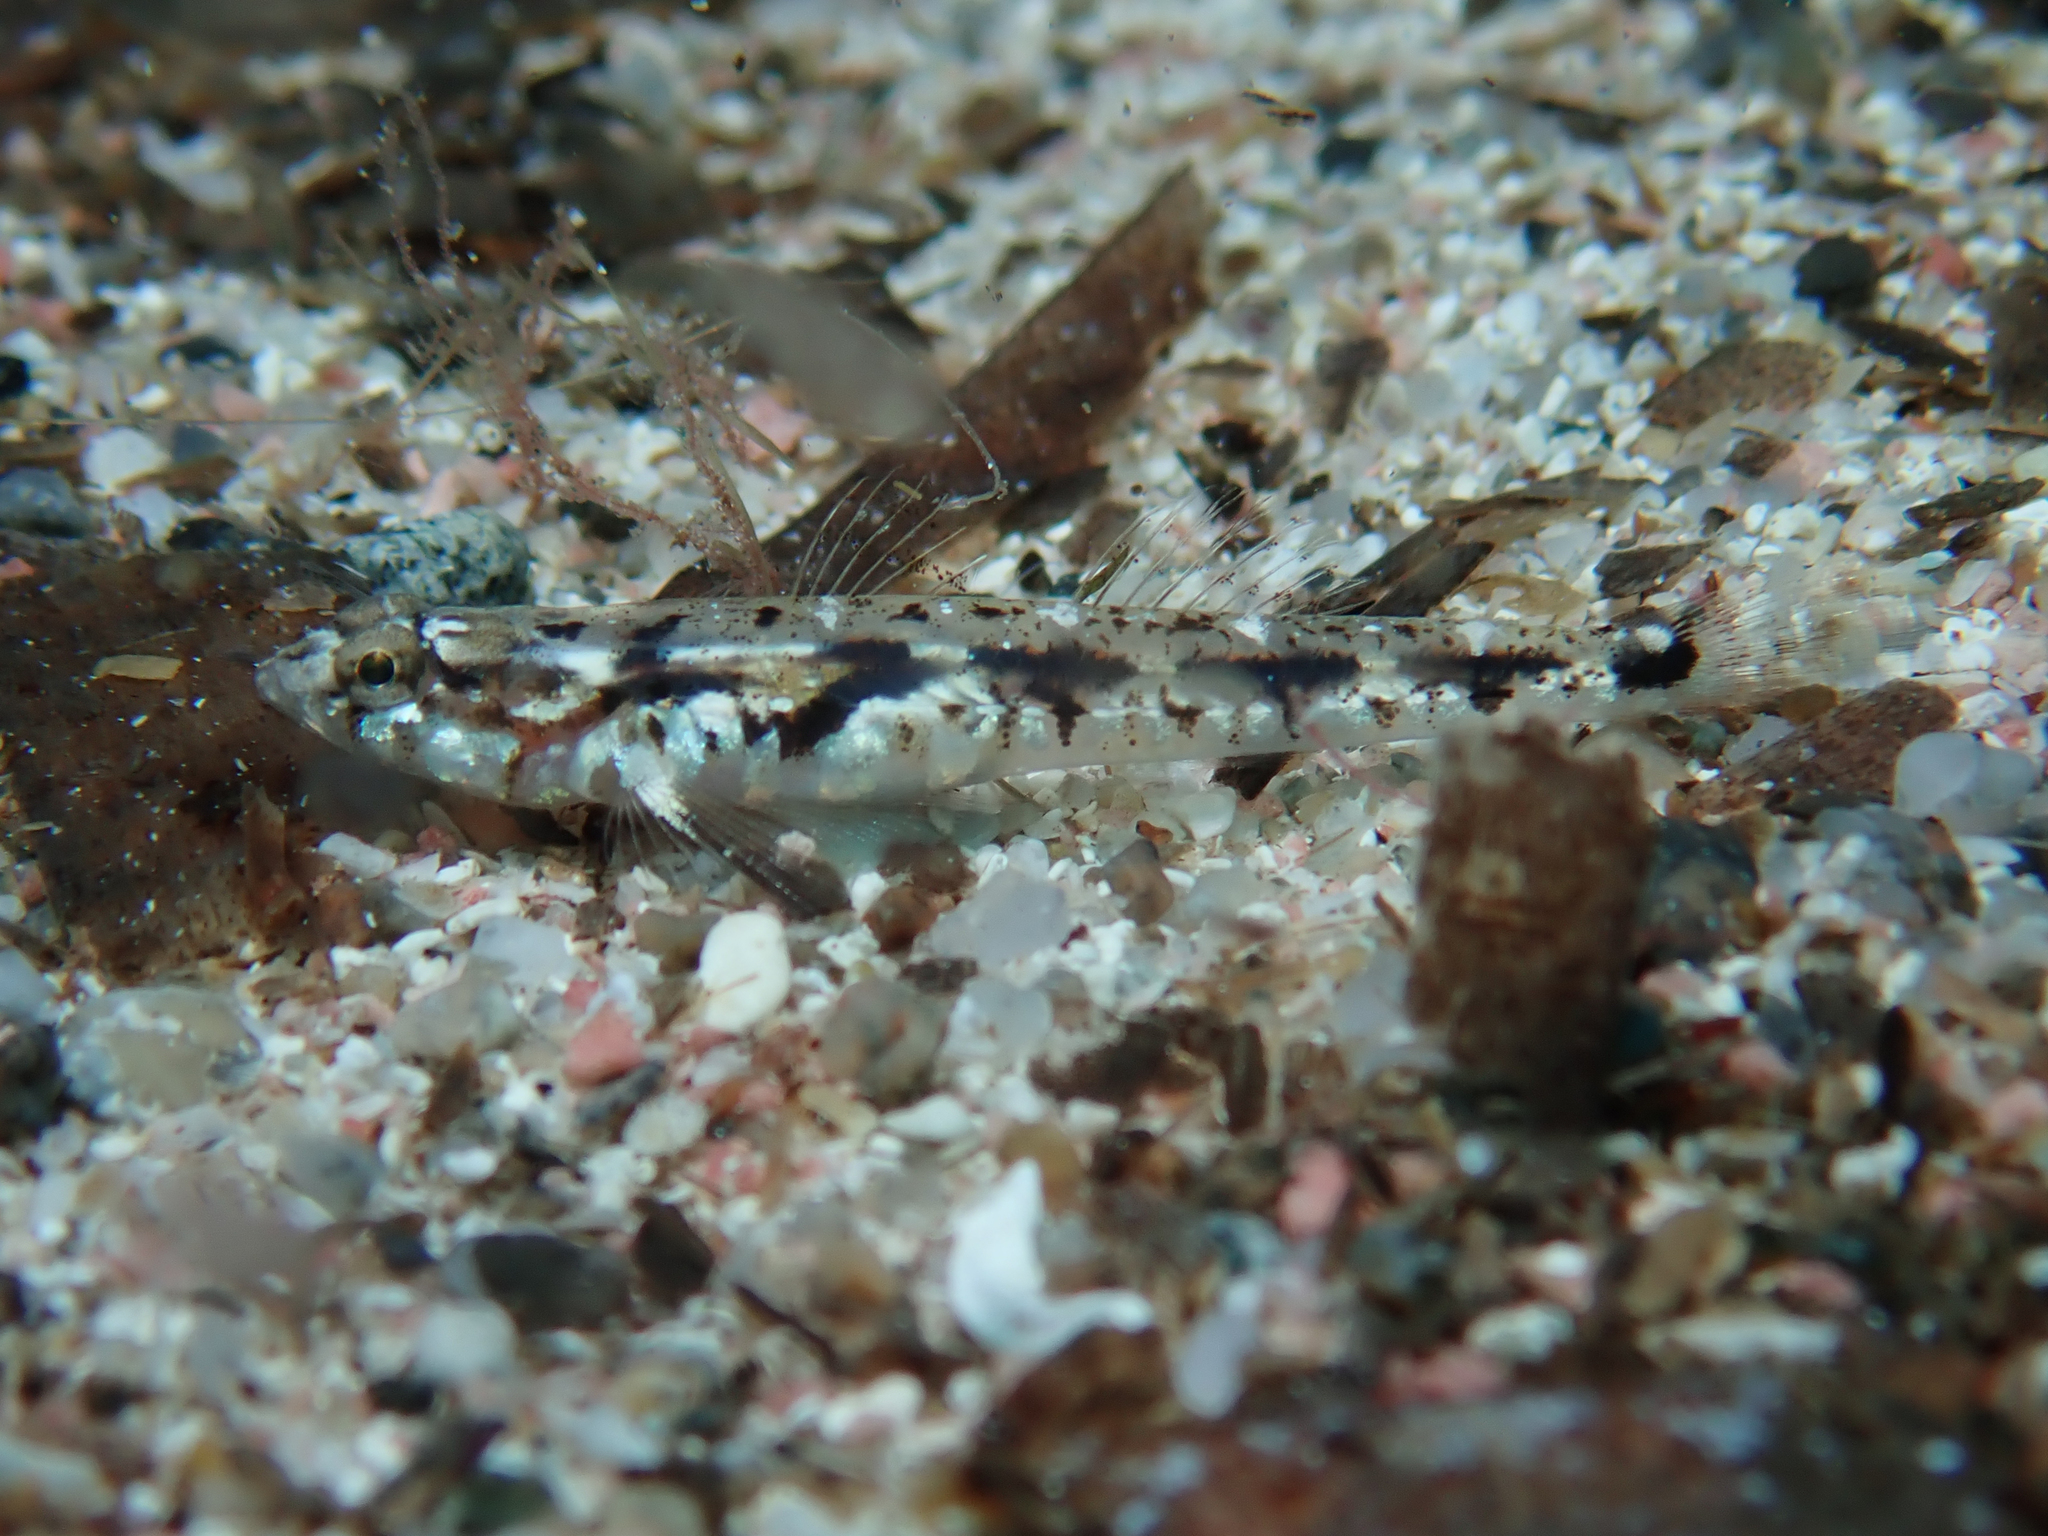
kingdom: Animalia
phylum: Chordata
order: Perciformes
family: Gobiidae
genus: Pomatoschistus
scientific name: Pomatoschistus bathi
